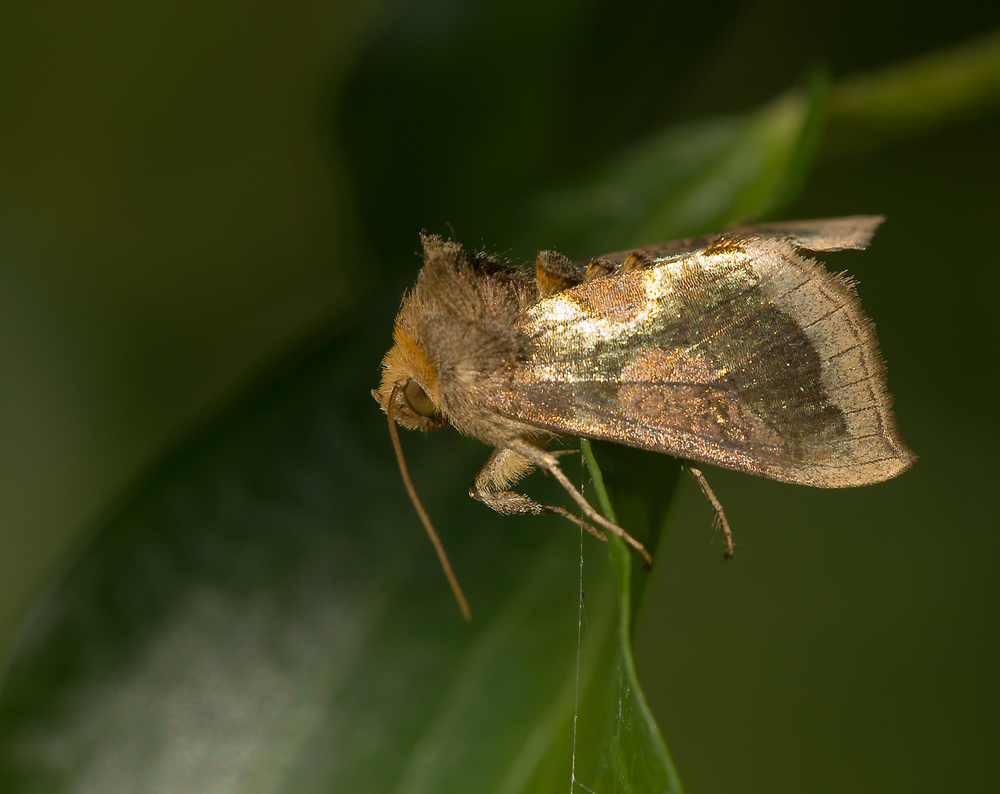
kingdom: Animalia
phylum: Arthropoda
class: Insecta
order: Lepidoptera
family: Noctuidae
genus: Diachrysia
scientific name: Diachrysia chrysitis
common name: Burnished brass
